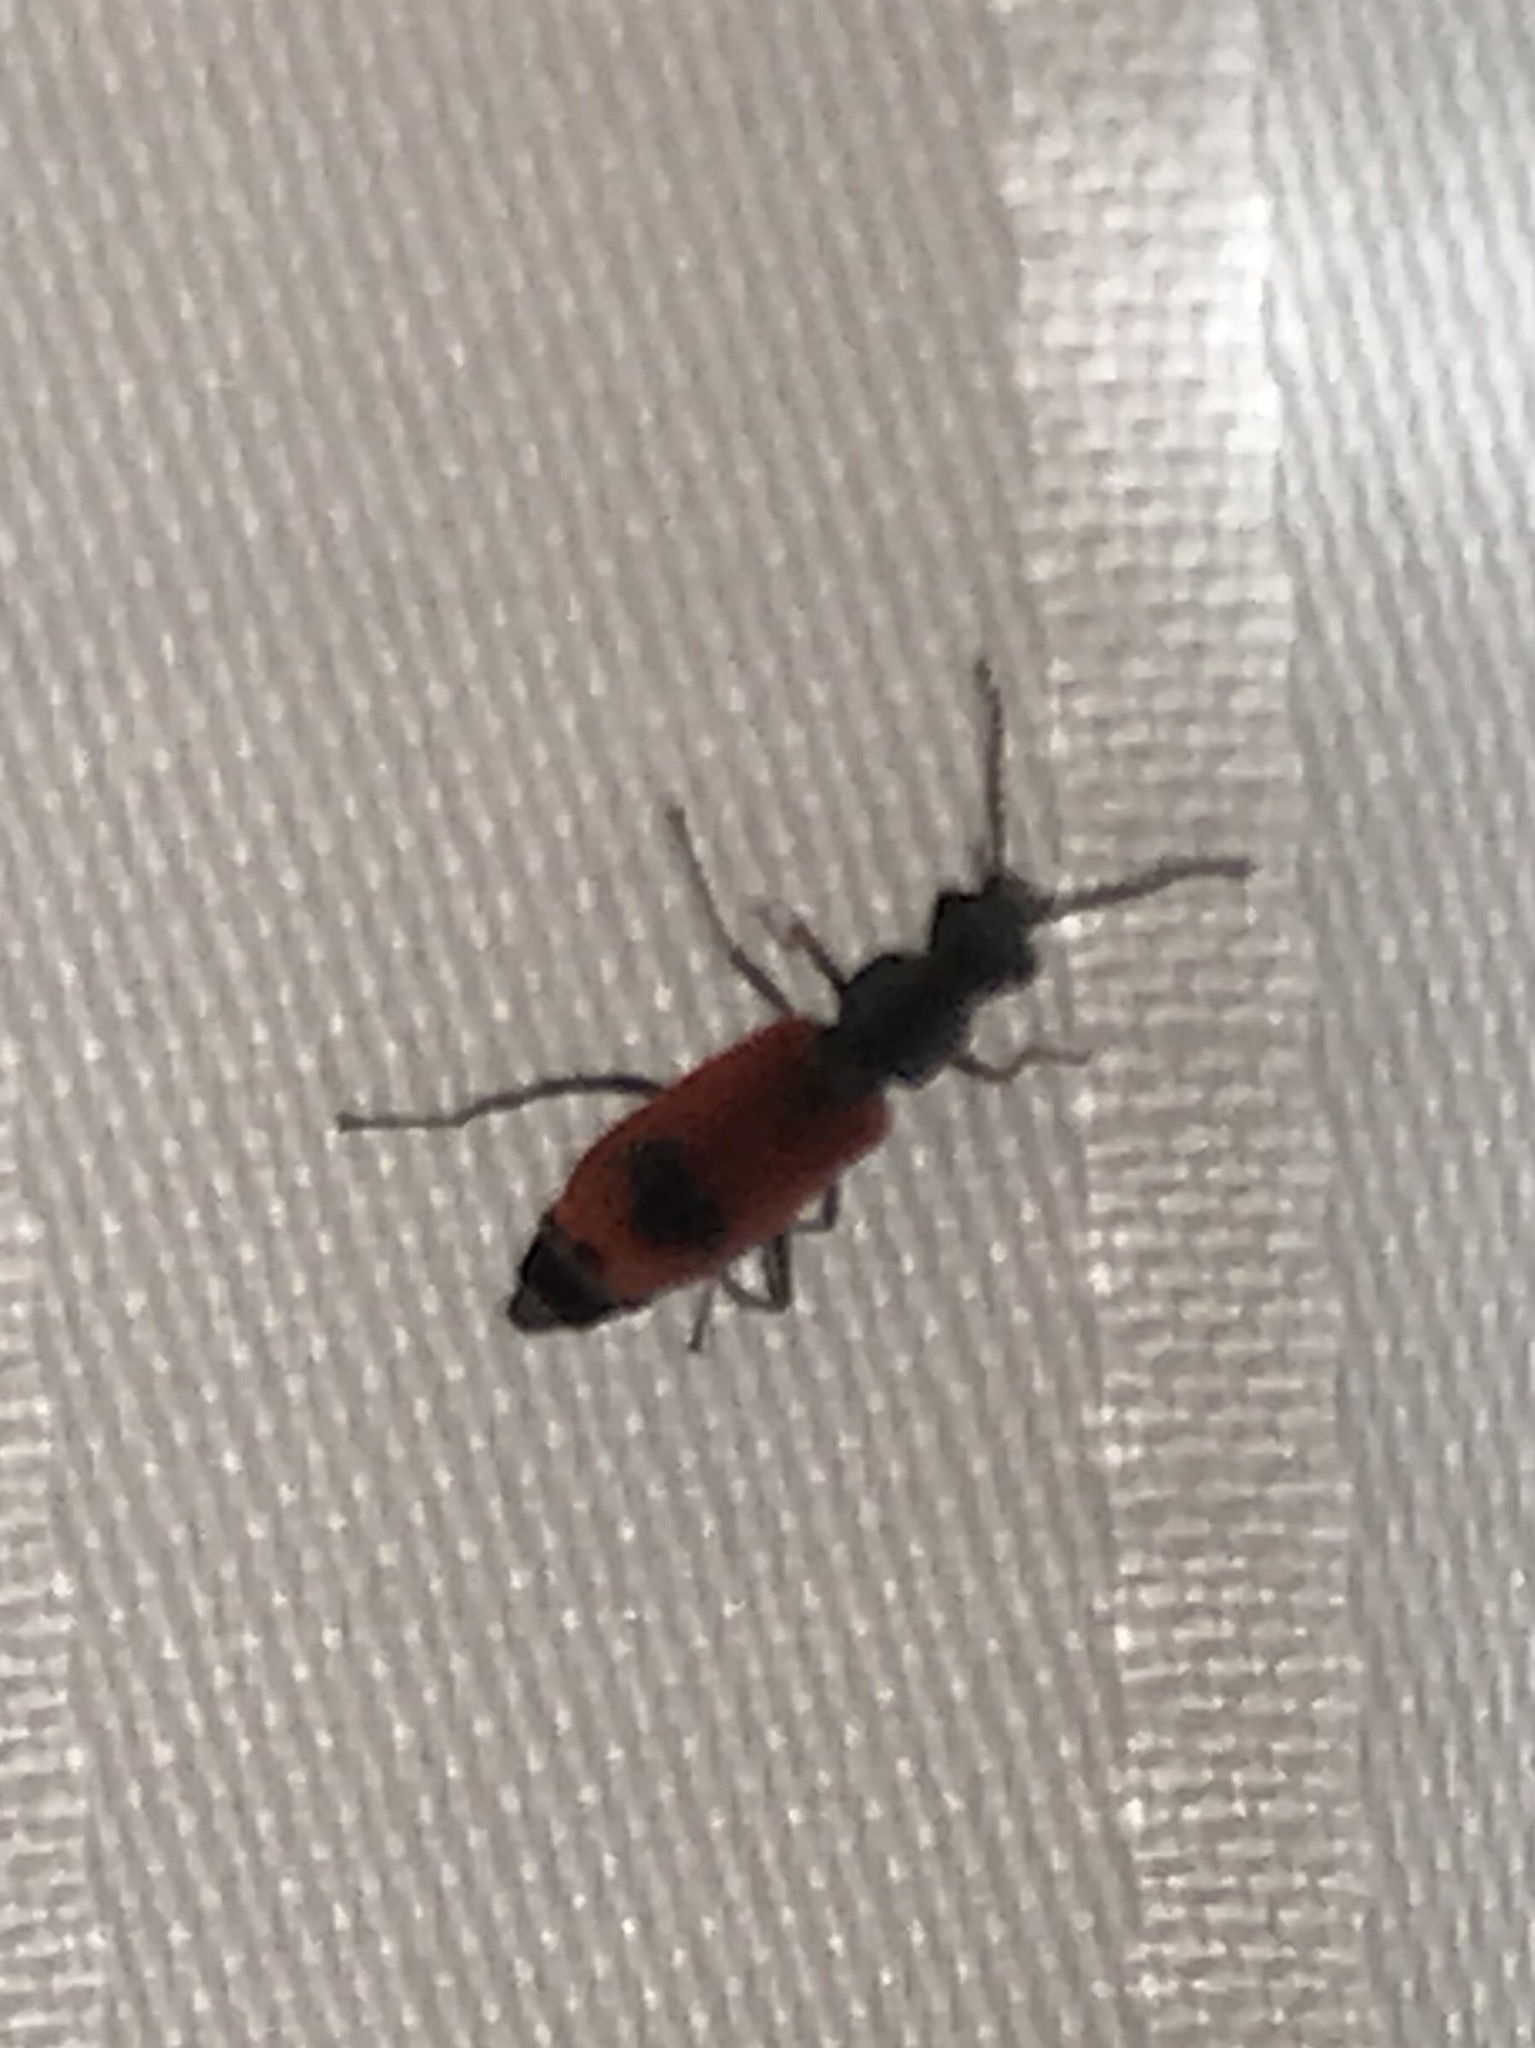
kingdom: Animalia
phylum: Arthropoda
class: Insecta
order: Coleoptera
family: Melyridae
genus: Anthocomus
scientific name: Anthocomus equestris
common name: Black-banded soft-winged flower beetle
